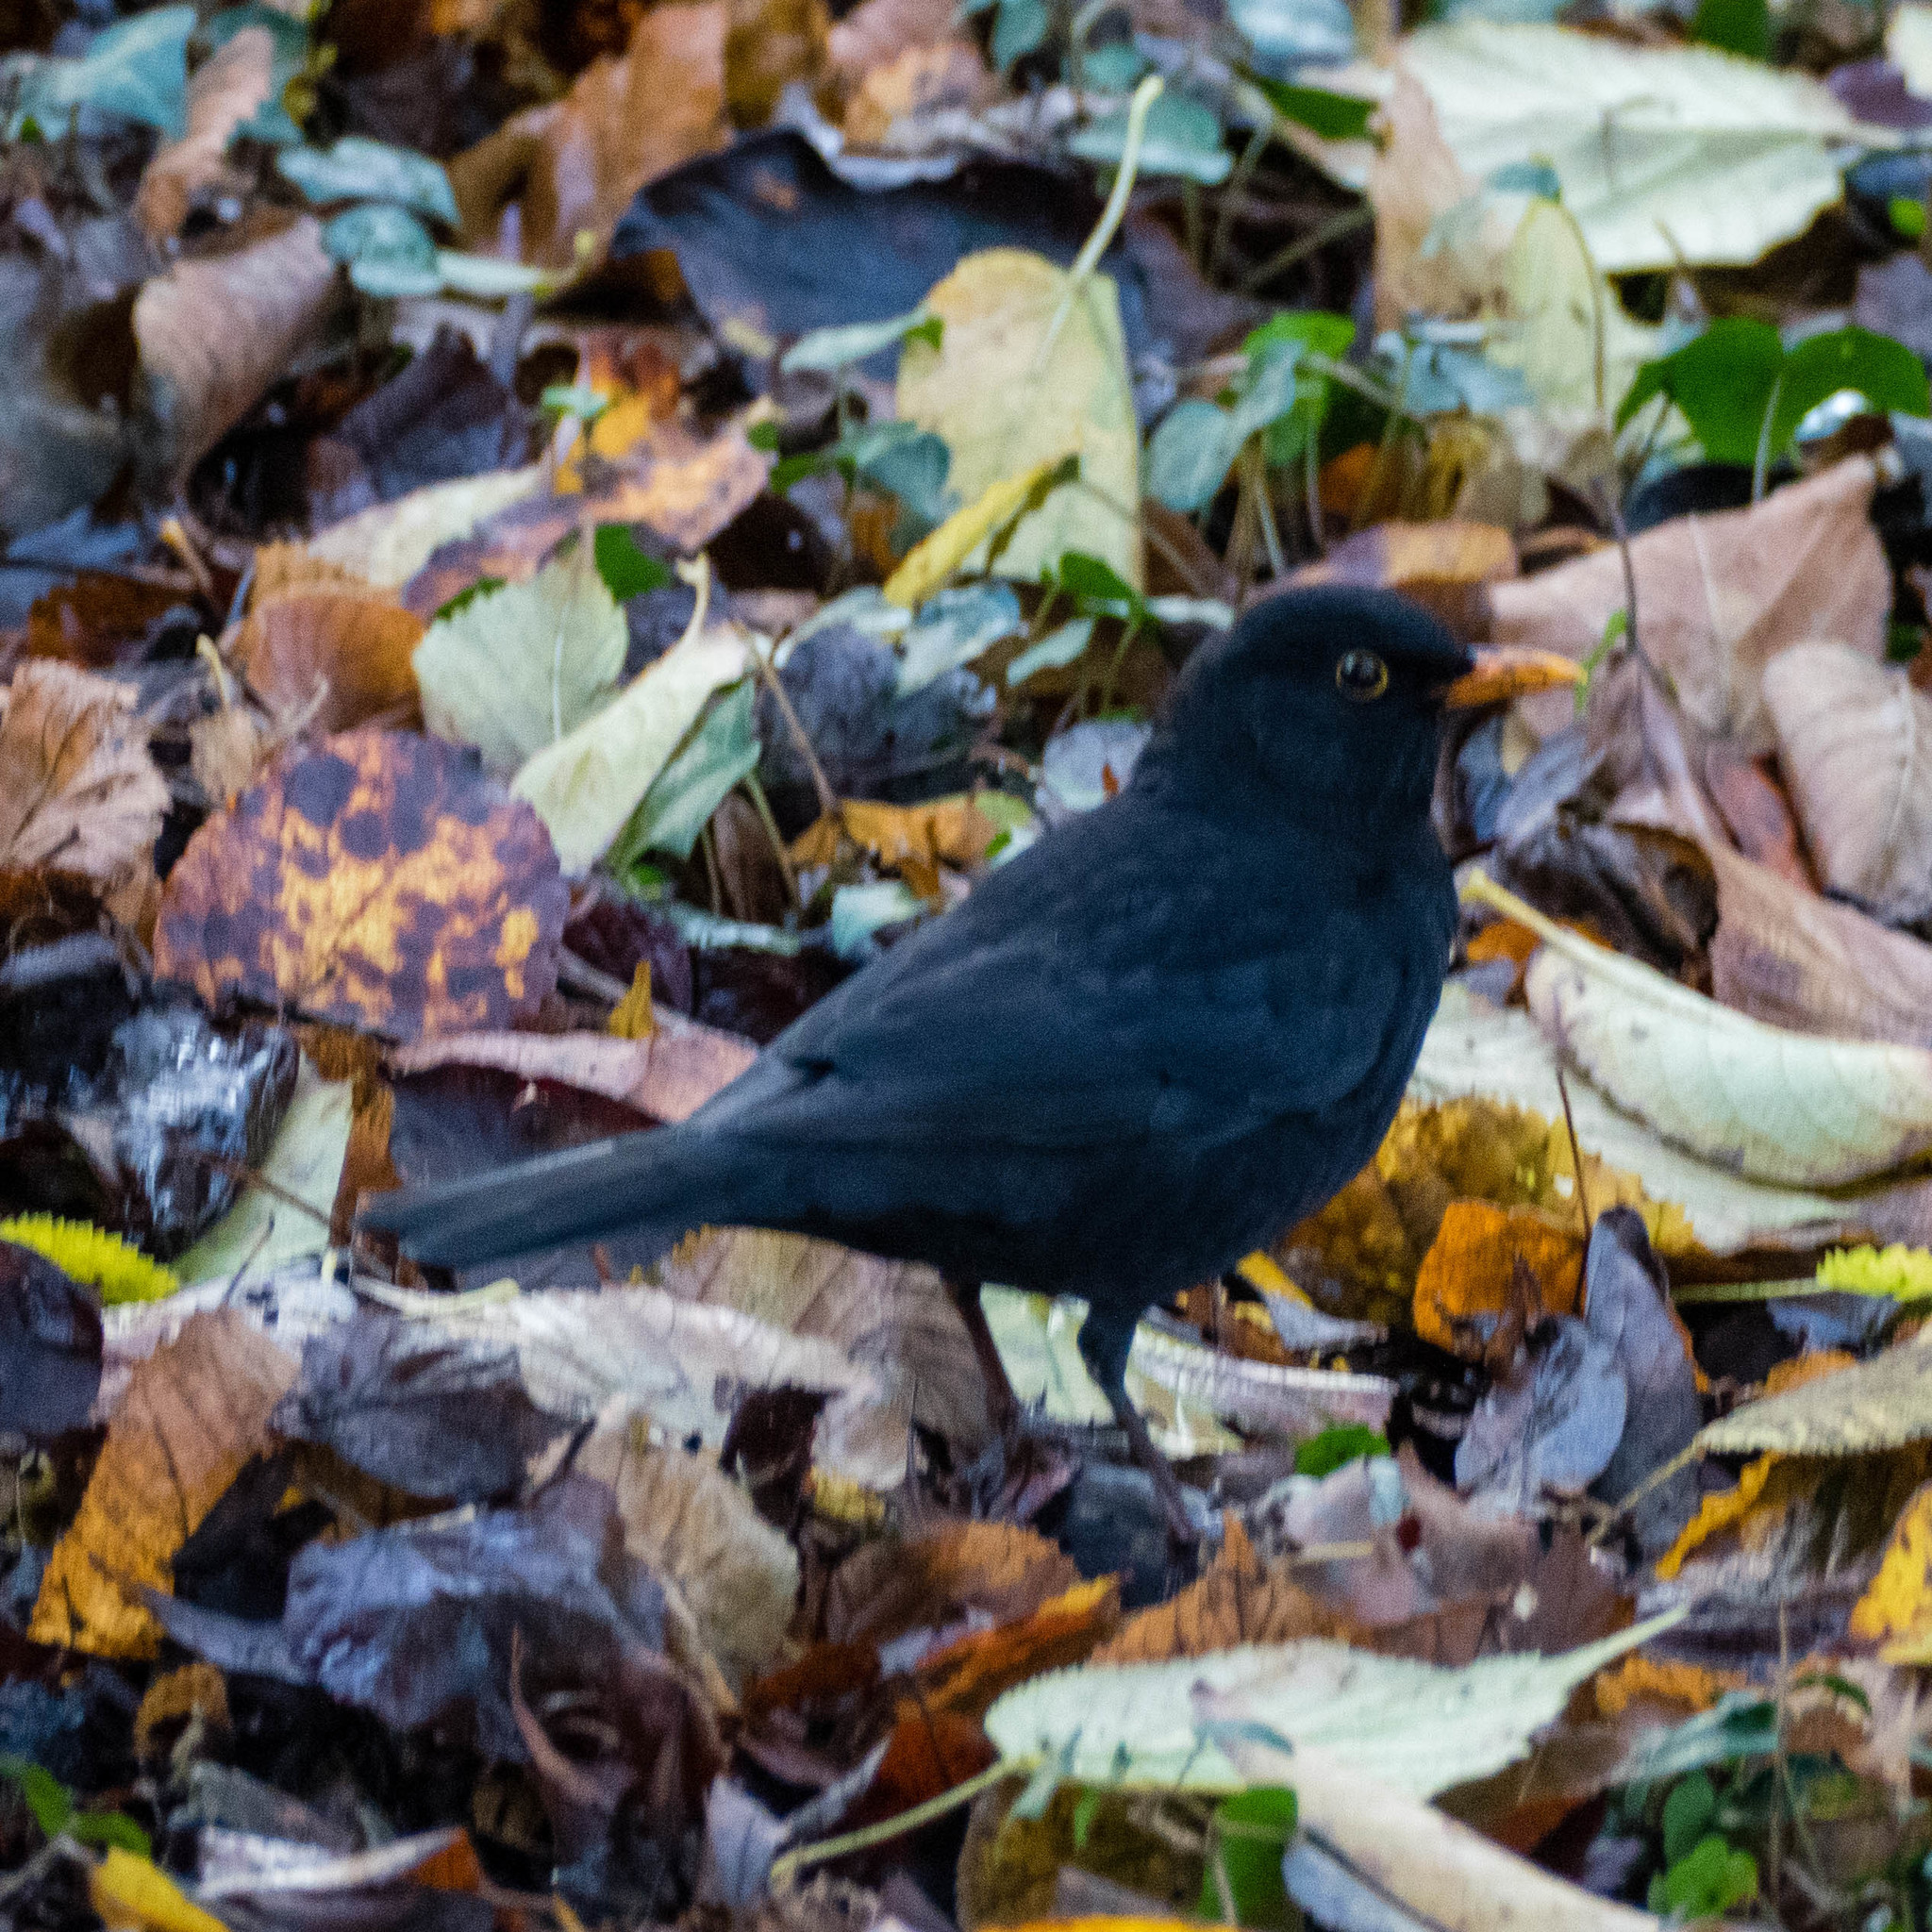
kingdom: Animalia
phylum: Chordata
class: Aves
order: Passeriformes
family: Turdidae
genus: Turdus
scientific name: Turdus merula
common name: Common blackbird
